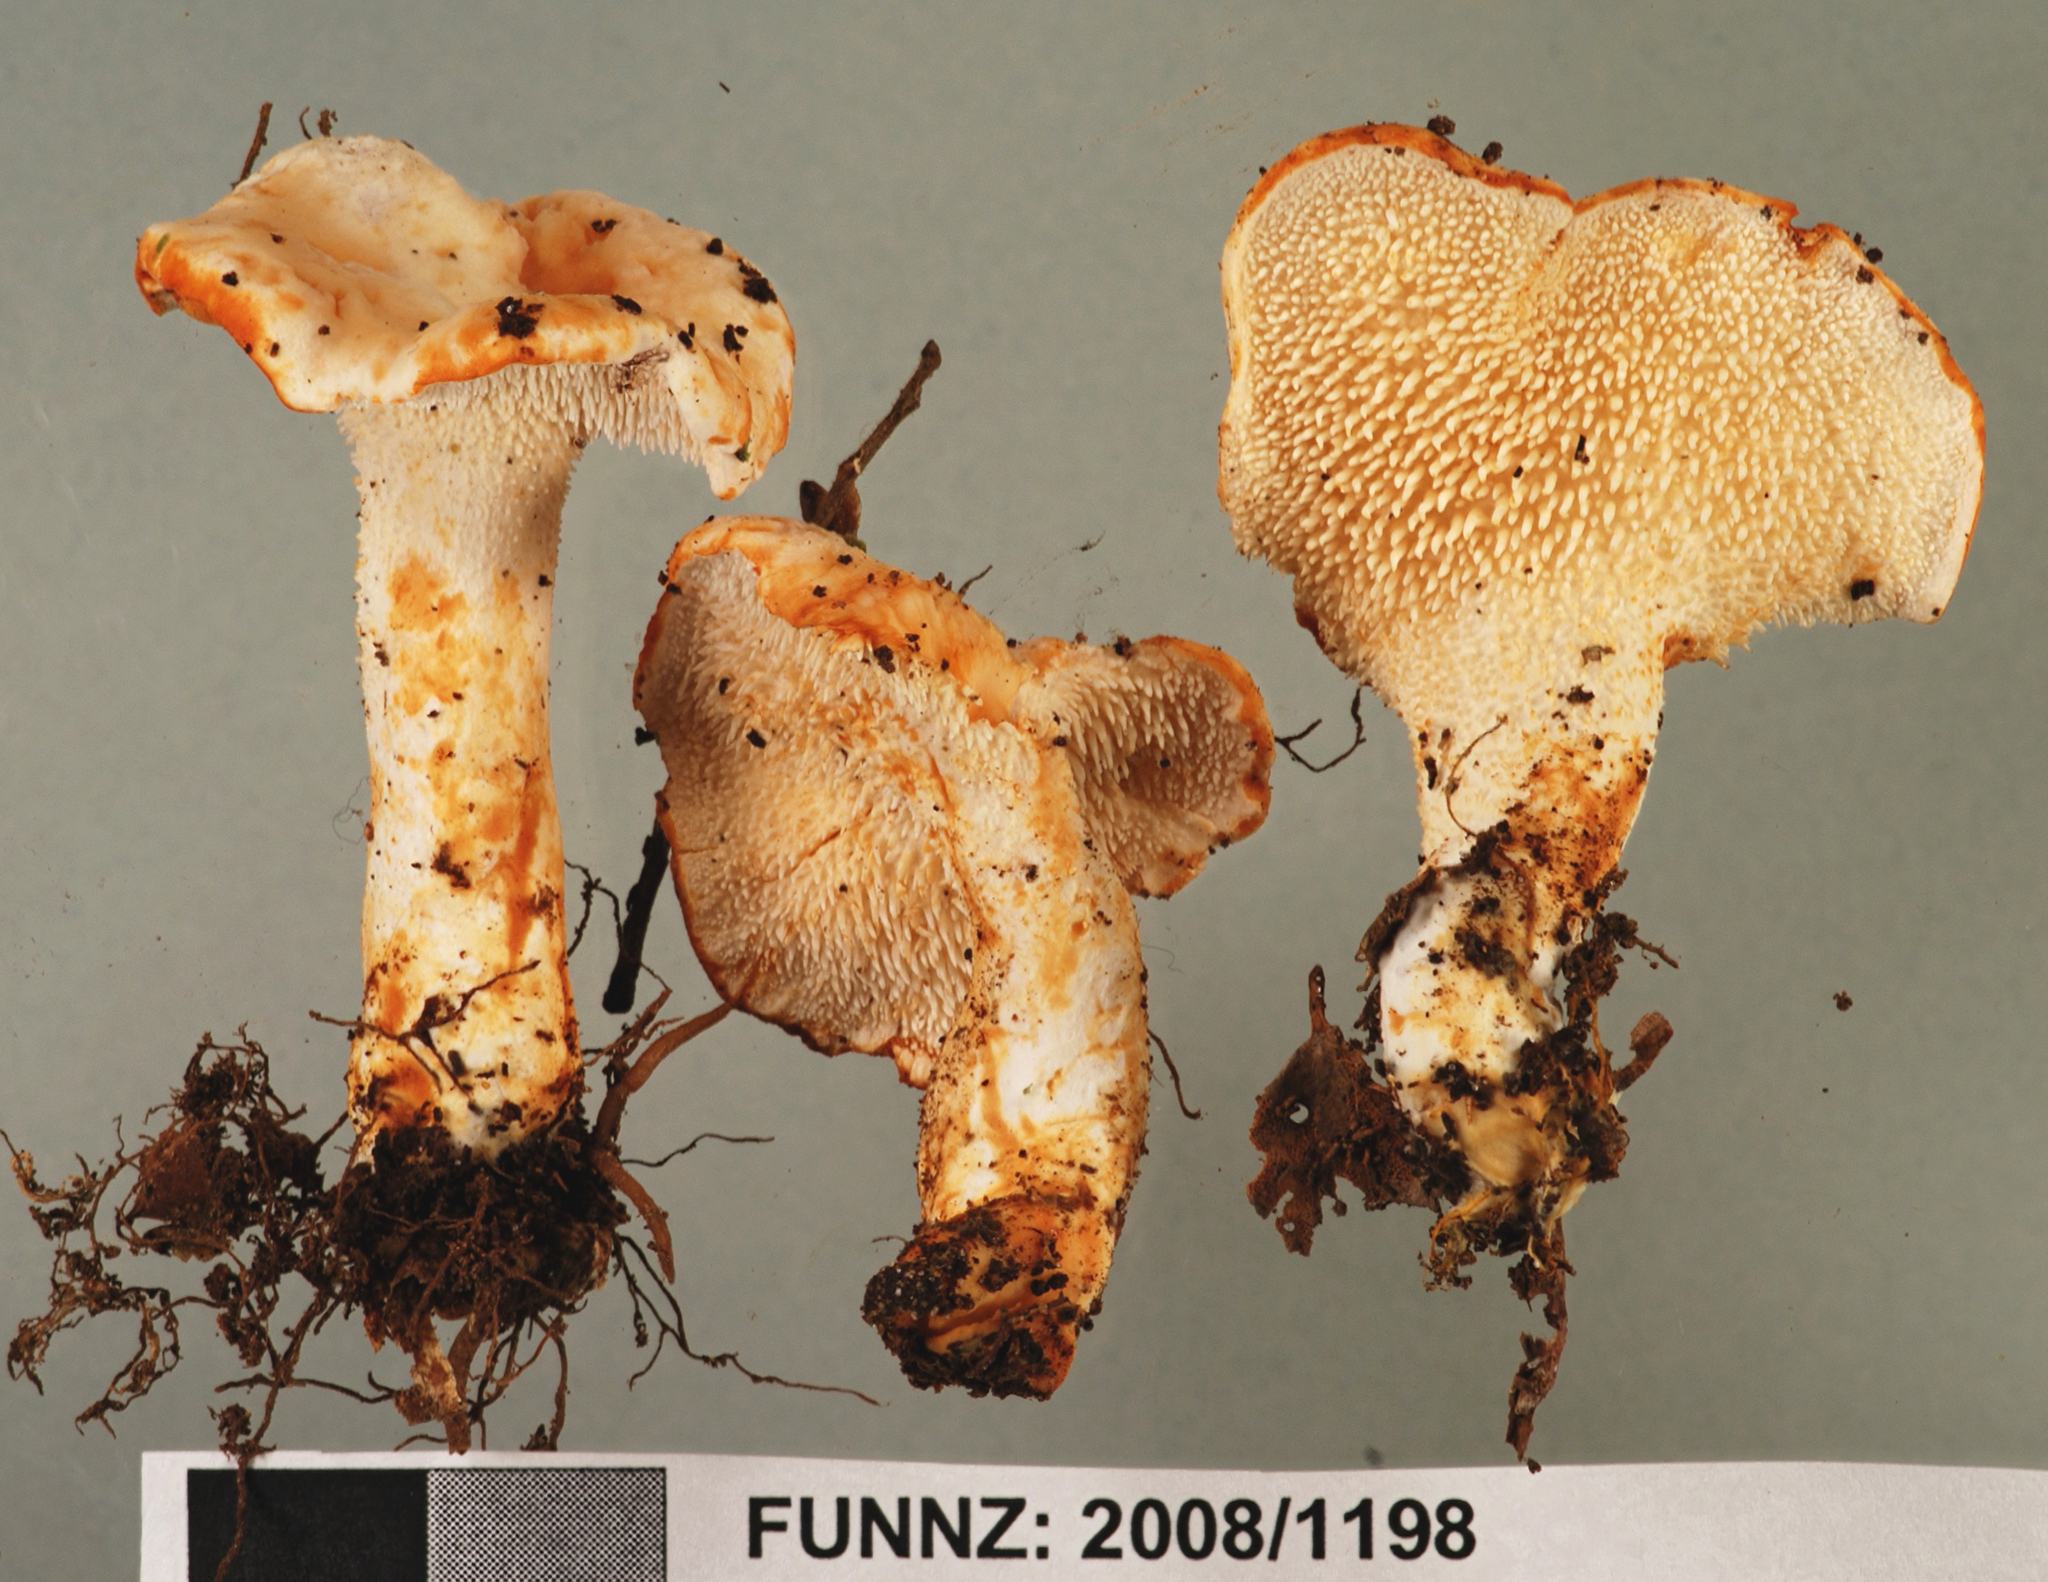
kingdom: Fungi
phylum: Basidiomycota
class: Agaricomycetes
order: Cantharellales
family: Hydnaceae
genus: Hydnum
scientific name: Hydnum ambustum
